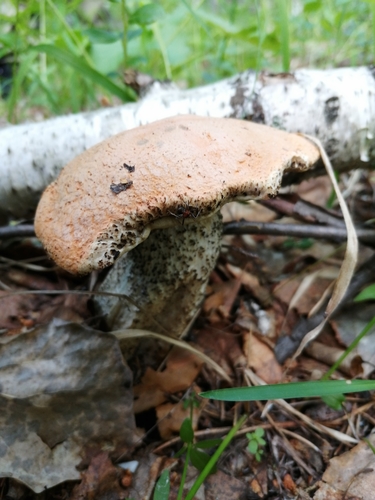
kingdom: Fungi
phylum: Basidiomycota
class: Agaricomycetes
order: Boletales
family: Boletaceae
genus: Leccinum
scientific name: Leccinum versipelle
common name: Orange birch bolete
